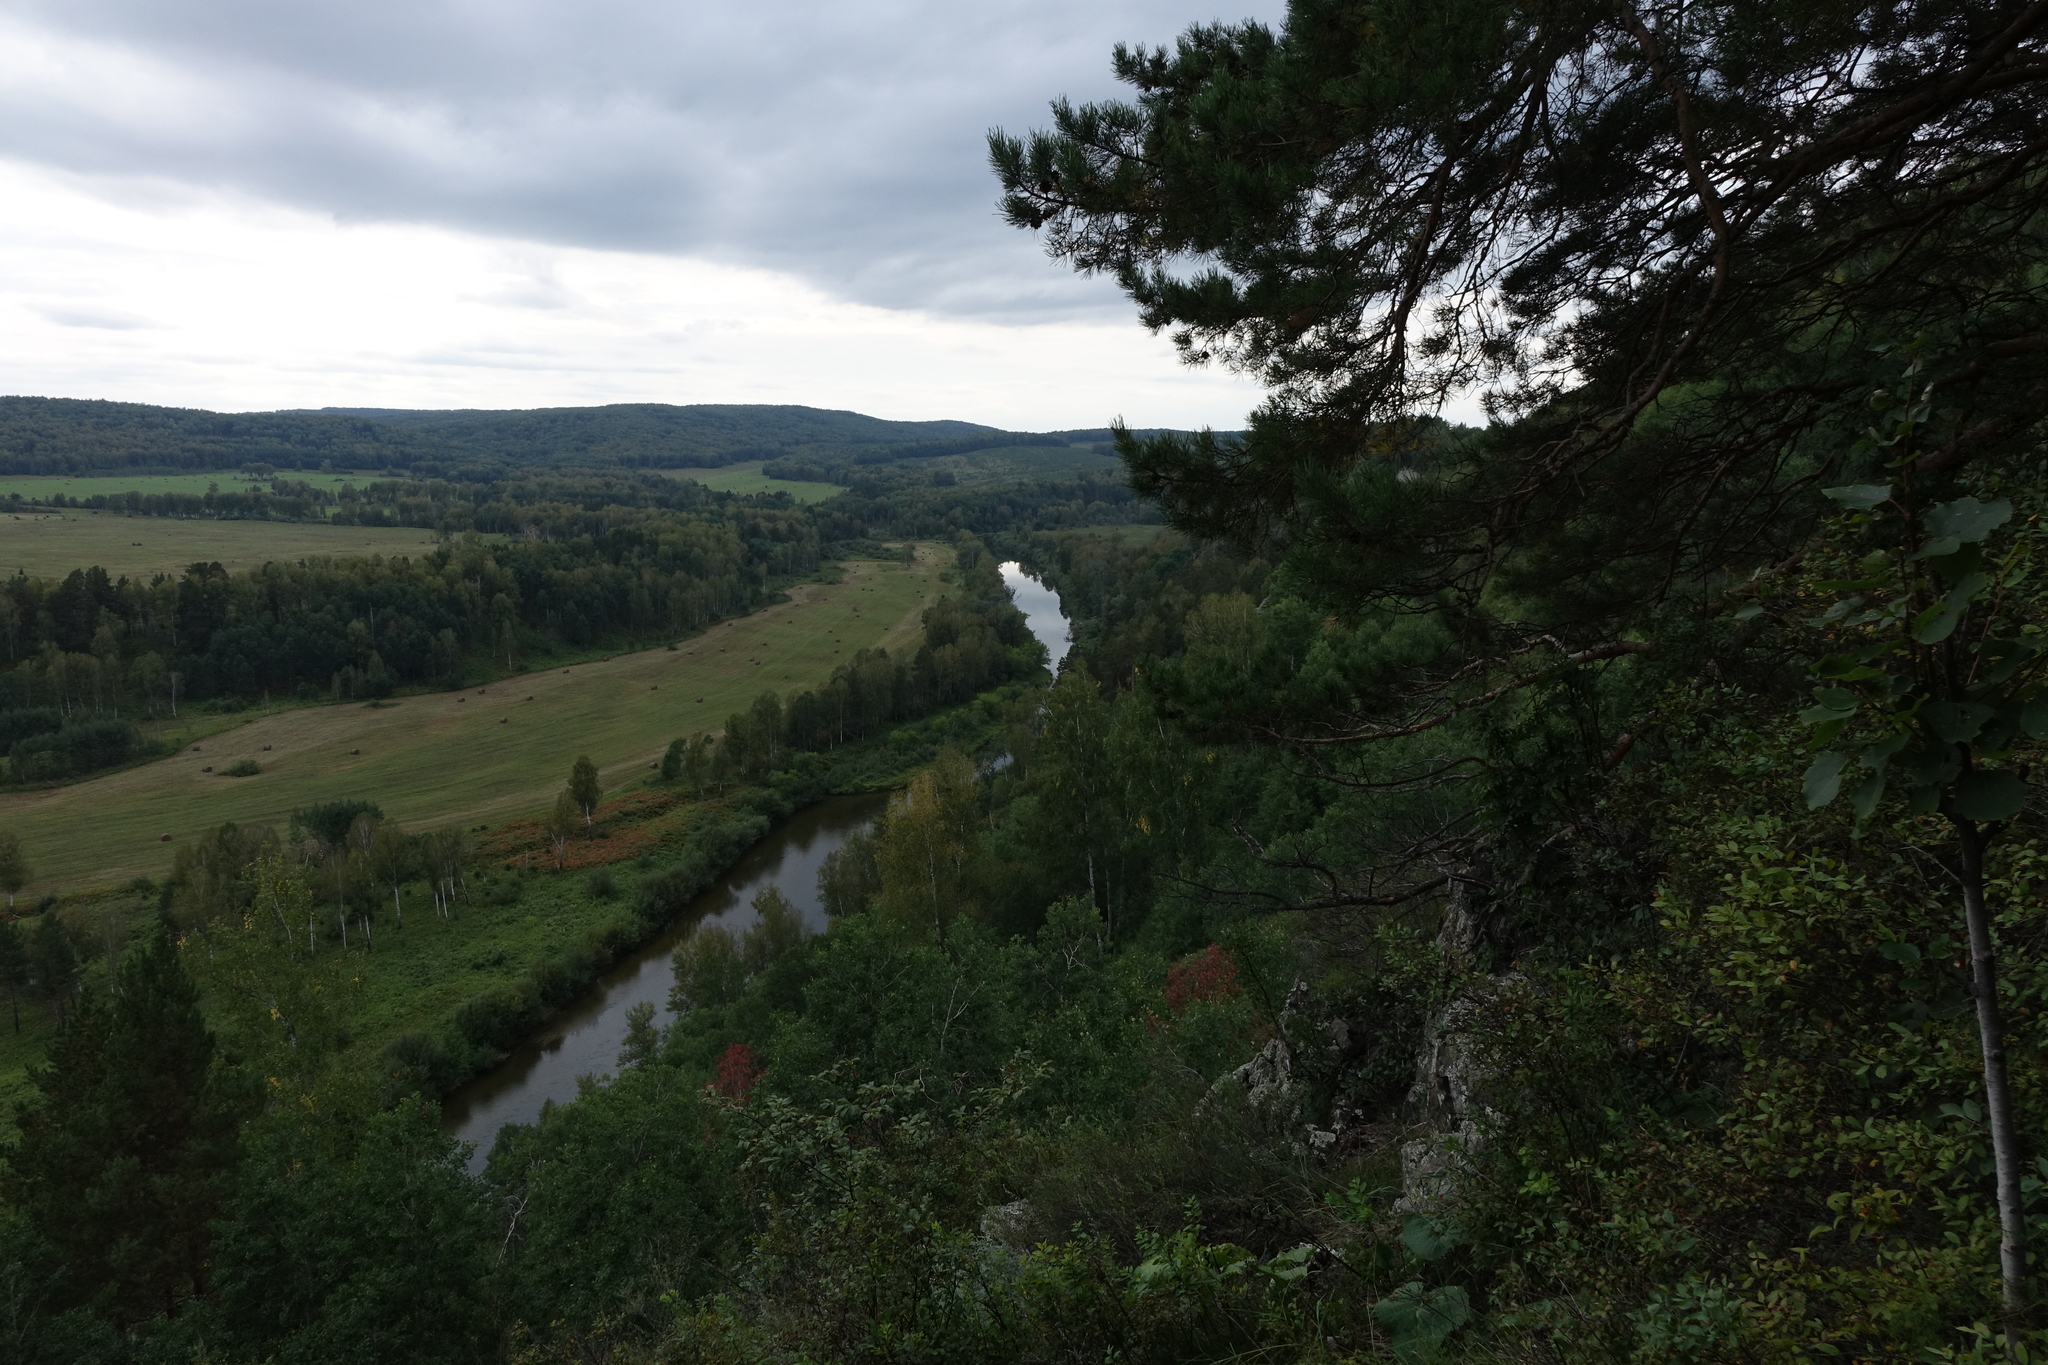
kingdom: Plantae
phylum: Tracheophyta
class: Pinopsida
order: Pinales
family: Pinaceae
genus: Pinus
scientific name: Pinus sylvestris
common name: Scots pine
